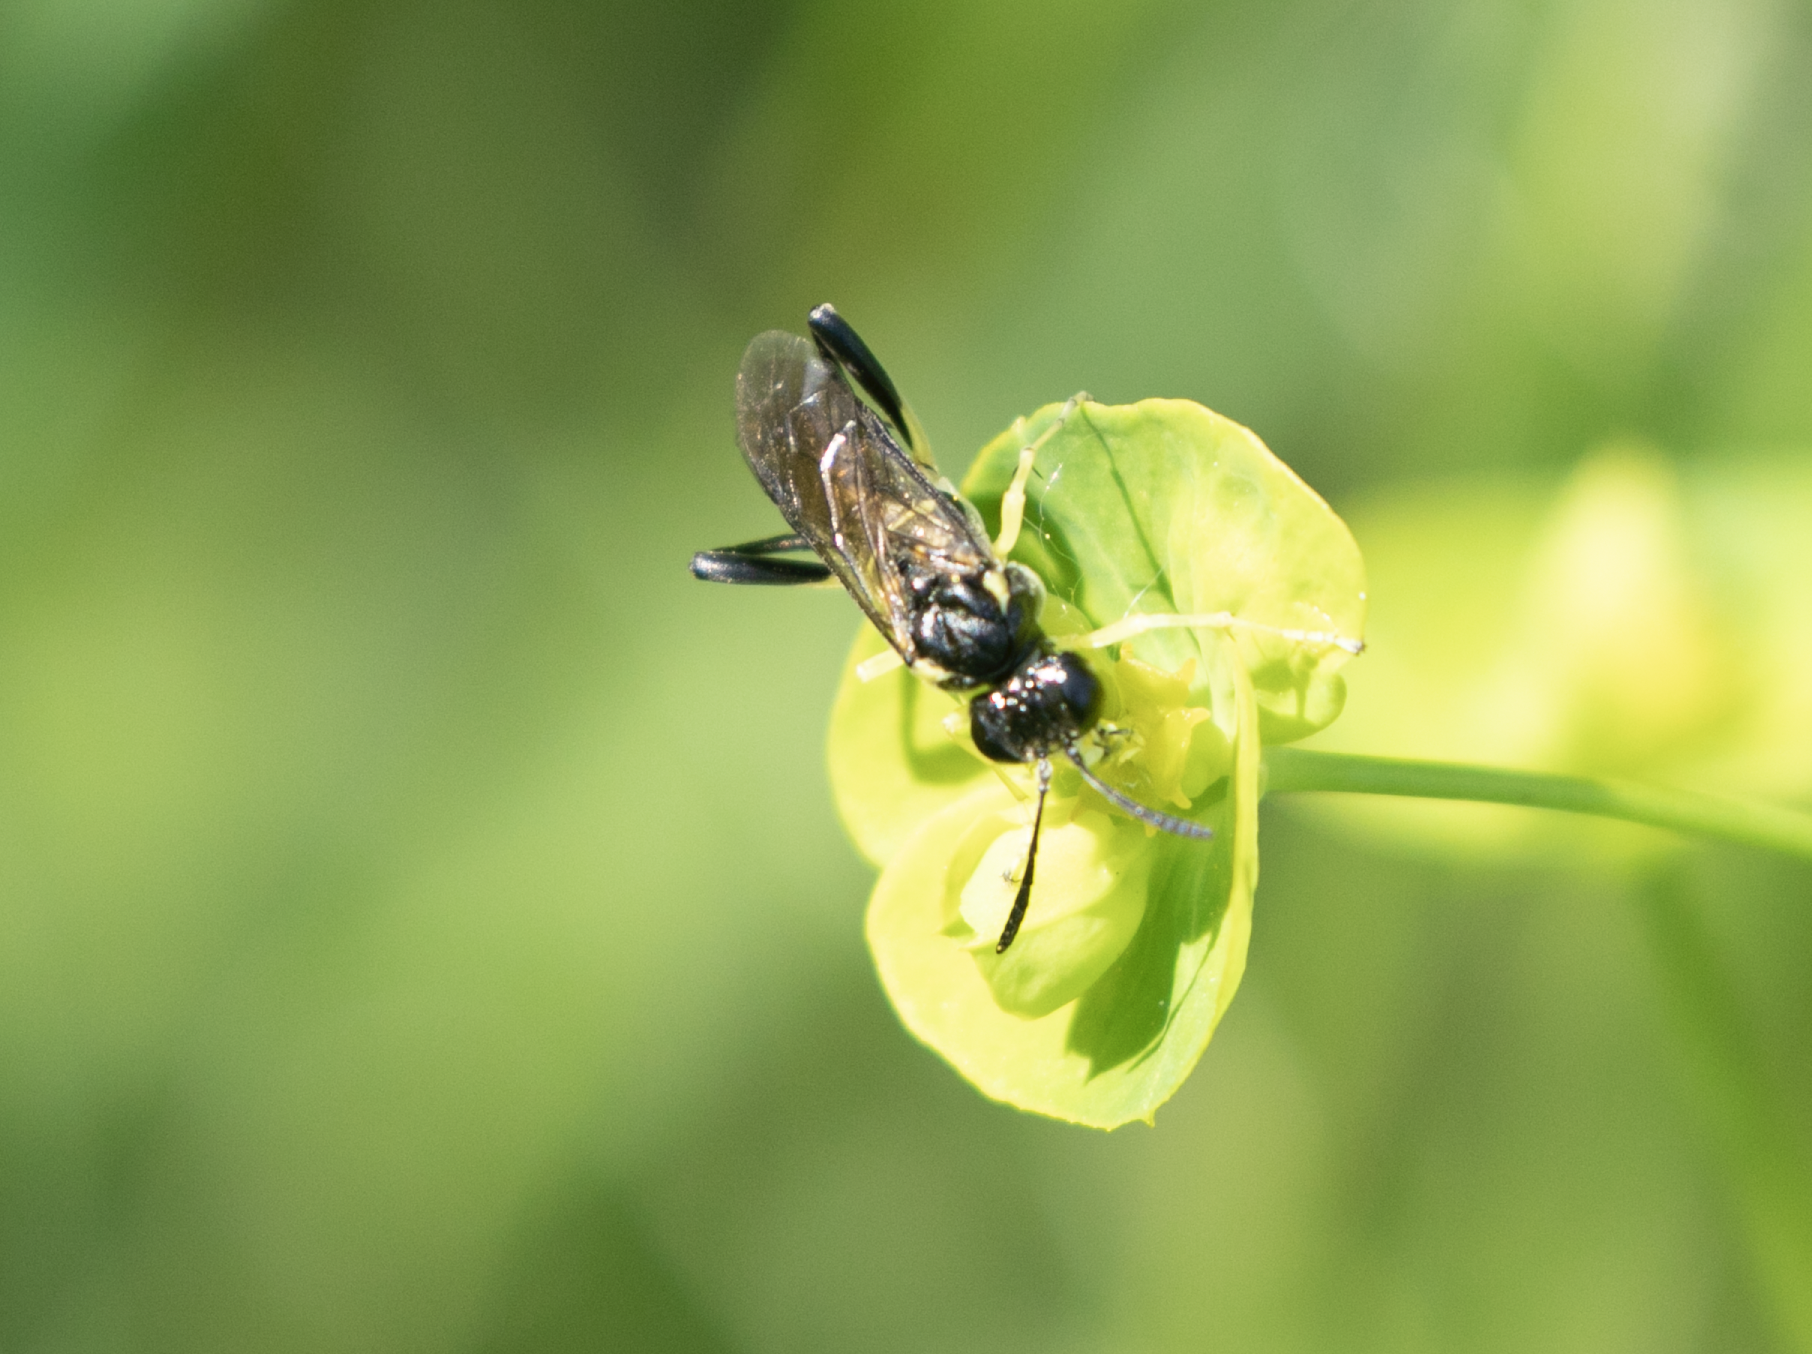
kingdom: Animalia
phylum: Arthropoda
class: Insecta
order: Hymenoptera
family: Tenthredinidae
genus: Macrophya
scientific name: Macrophya montana
